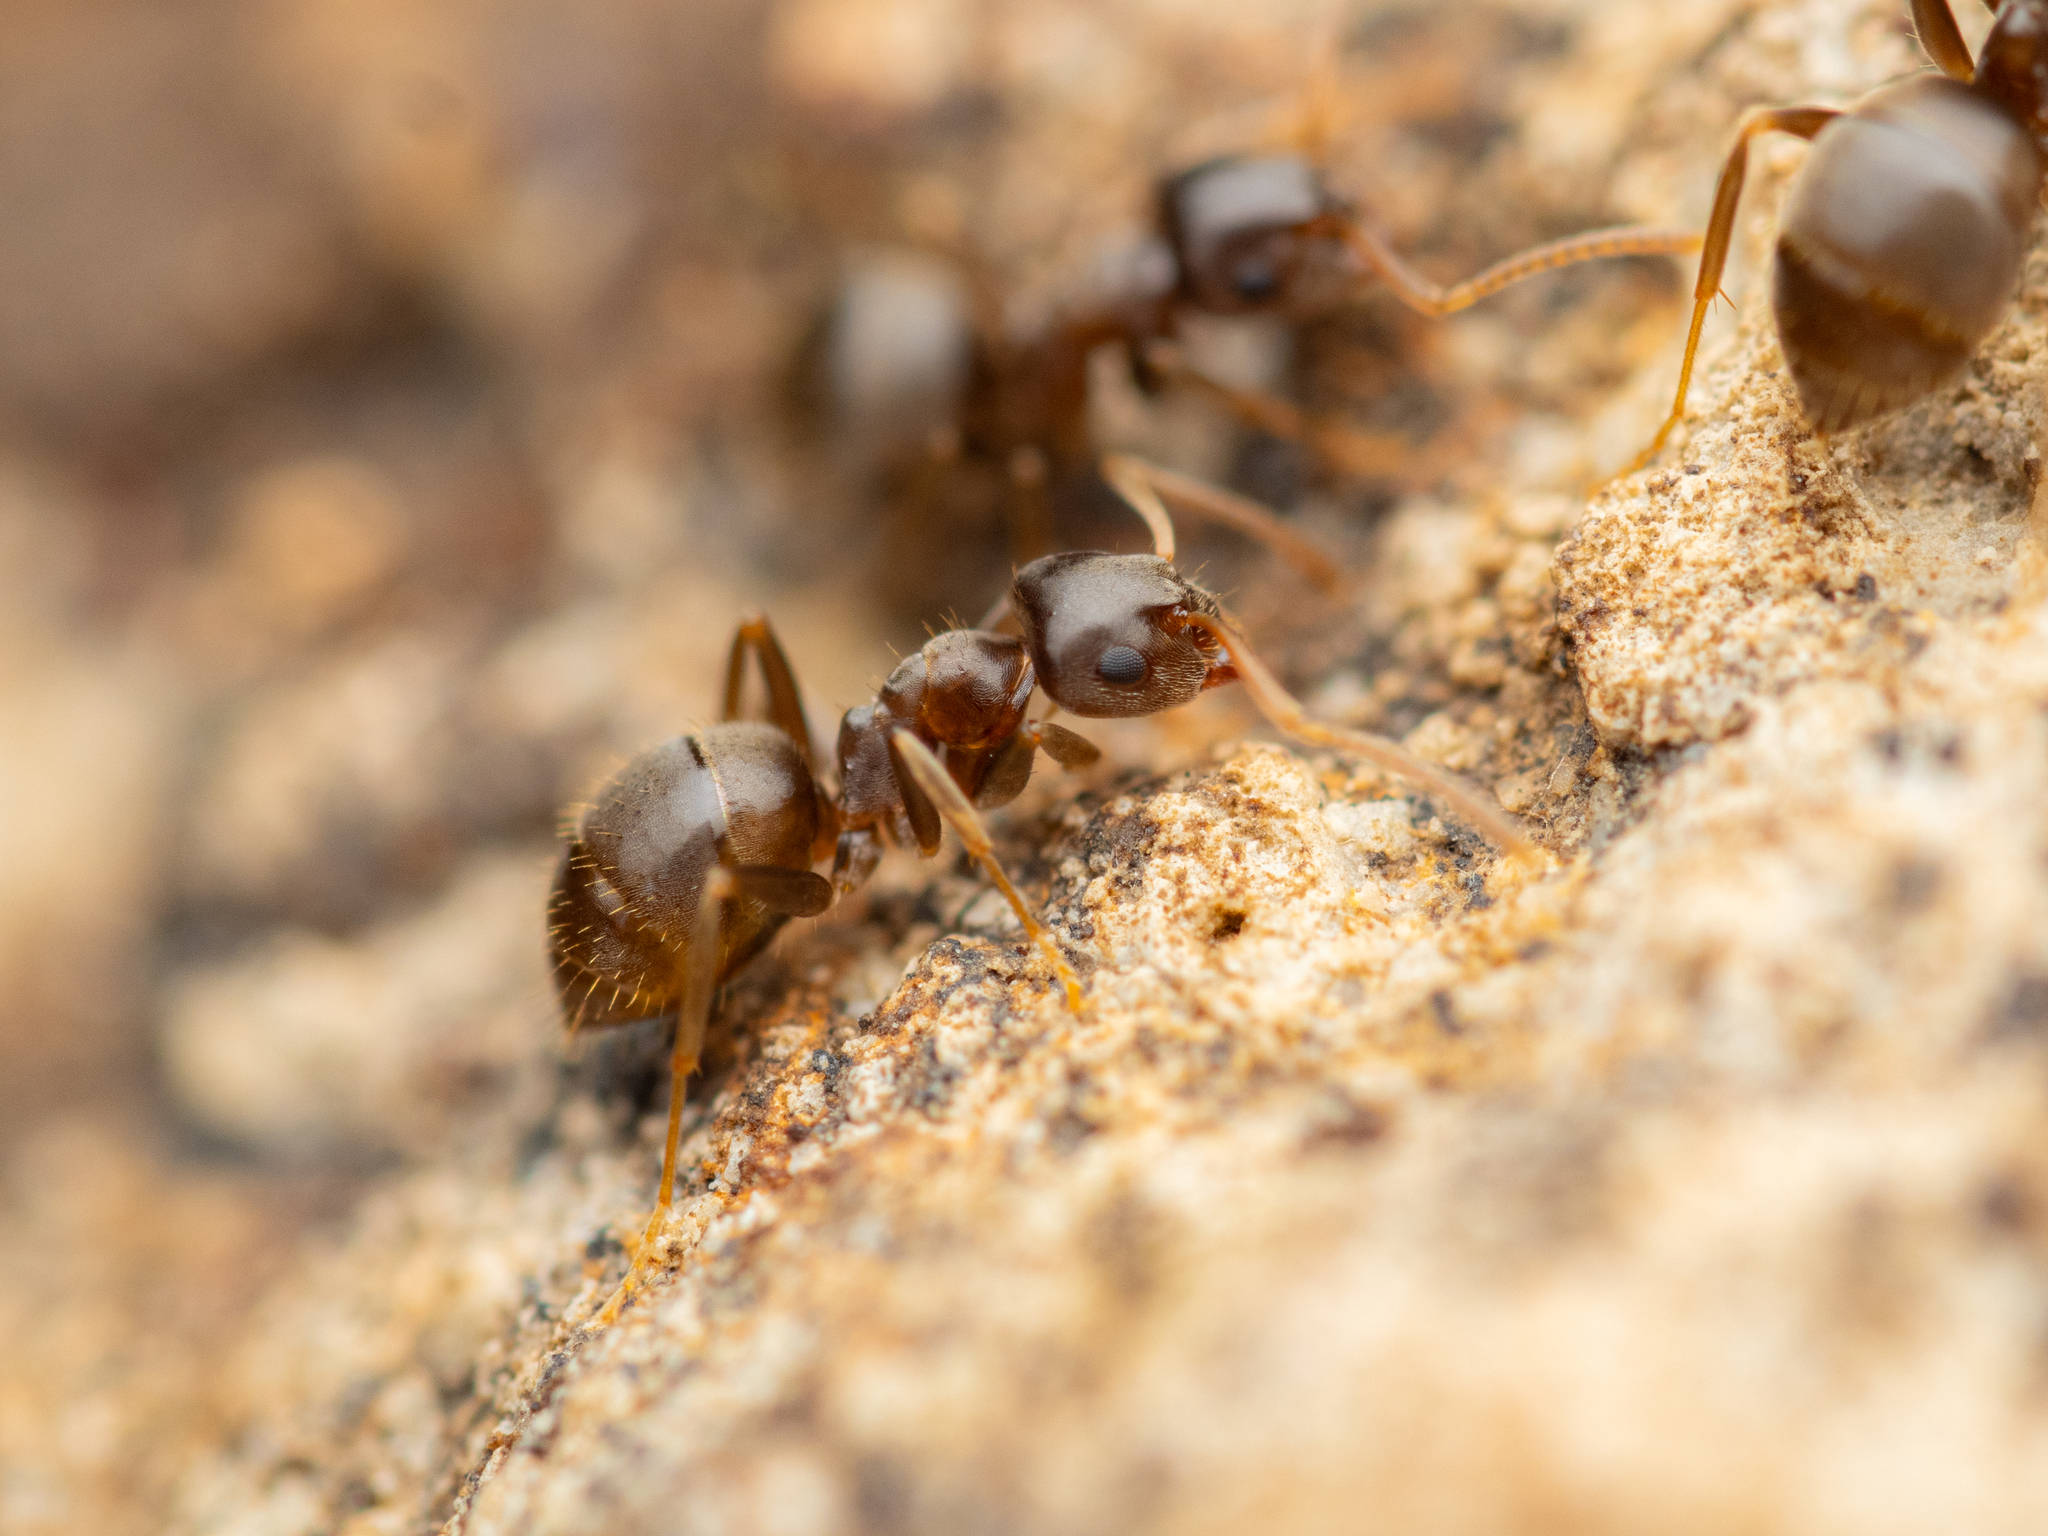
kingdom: Animalia
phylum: Arthropoda
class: Insecta
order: Hymenoptera
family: Formicidae
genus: Lasius
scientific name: Lasius alienus
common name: Alien field ant
